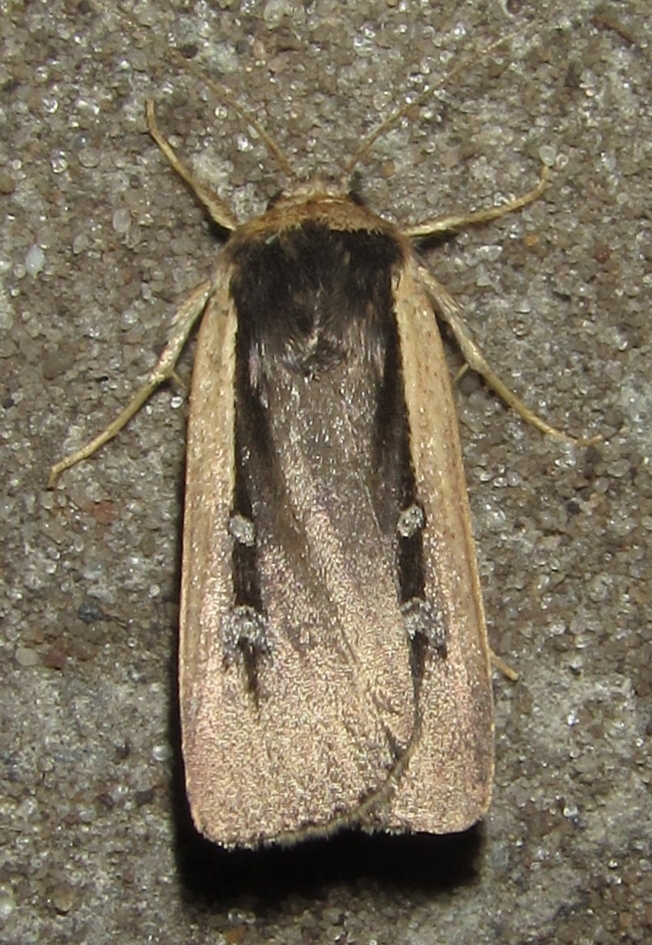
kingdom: Animalia
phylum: Arthropoda
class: Insecta
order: Lepidoptera
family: Noctuidae
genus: Ochropleura
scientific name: Ochropleura leucogaster
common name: Radford's flame shoulder
